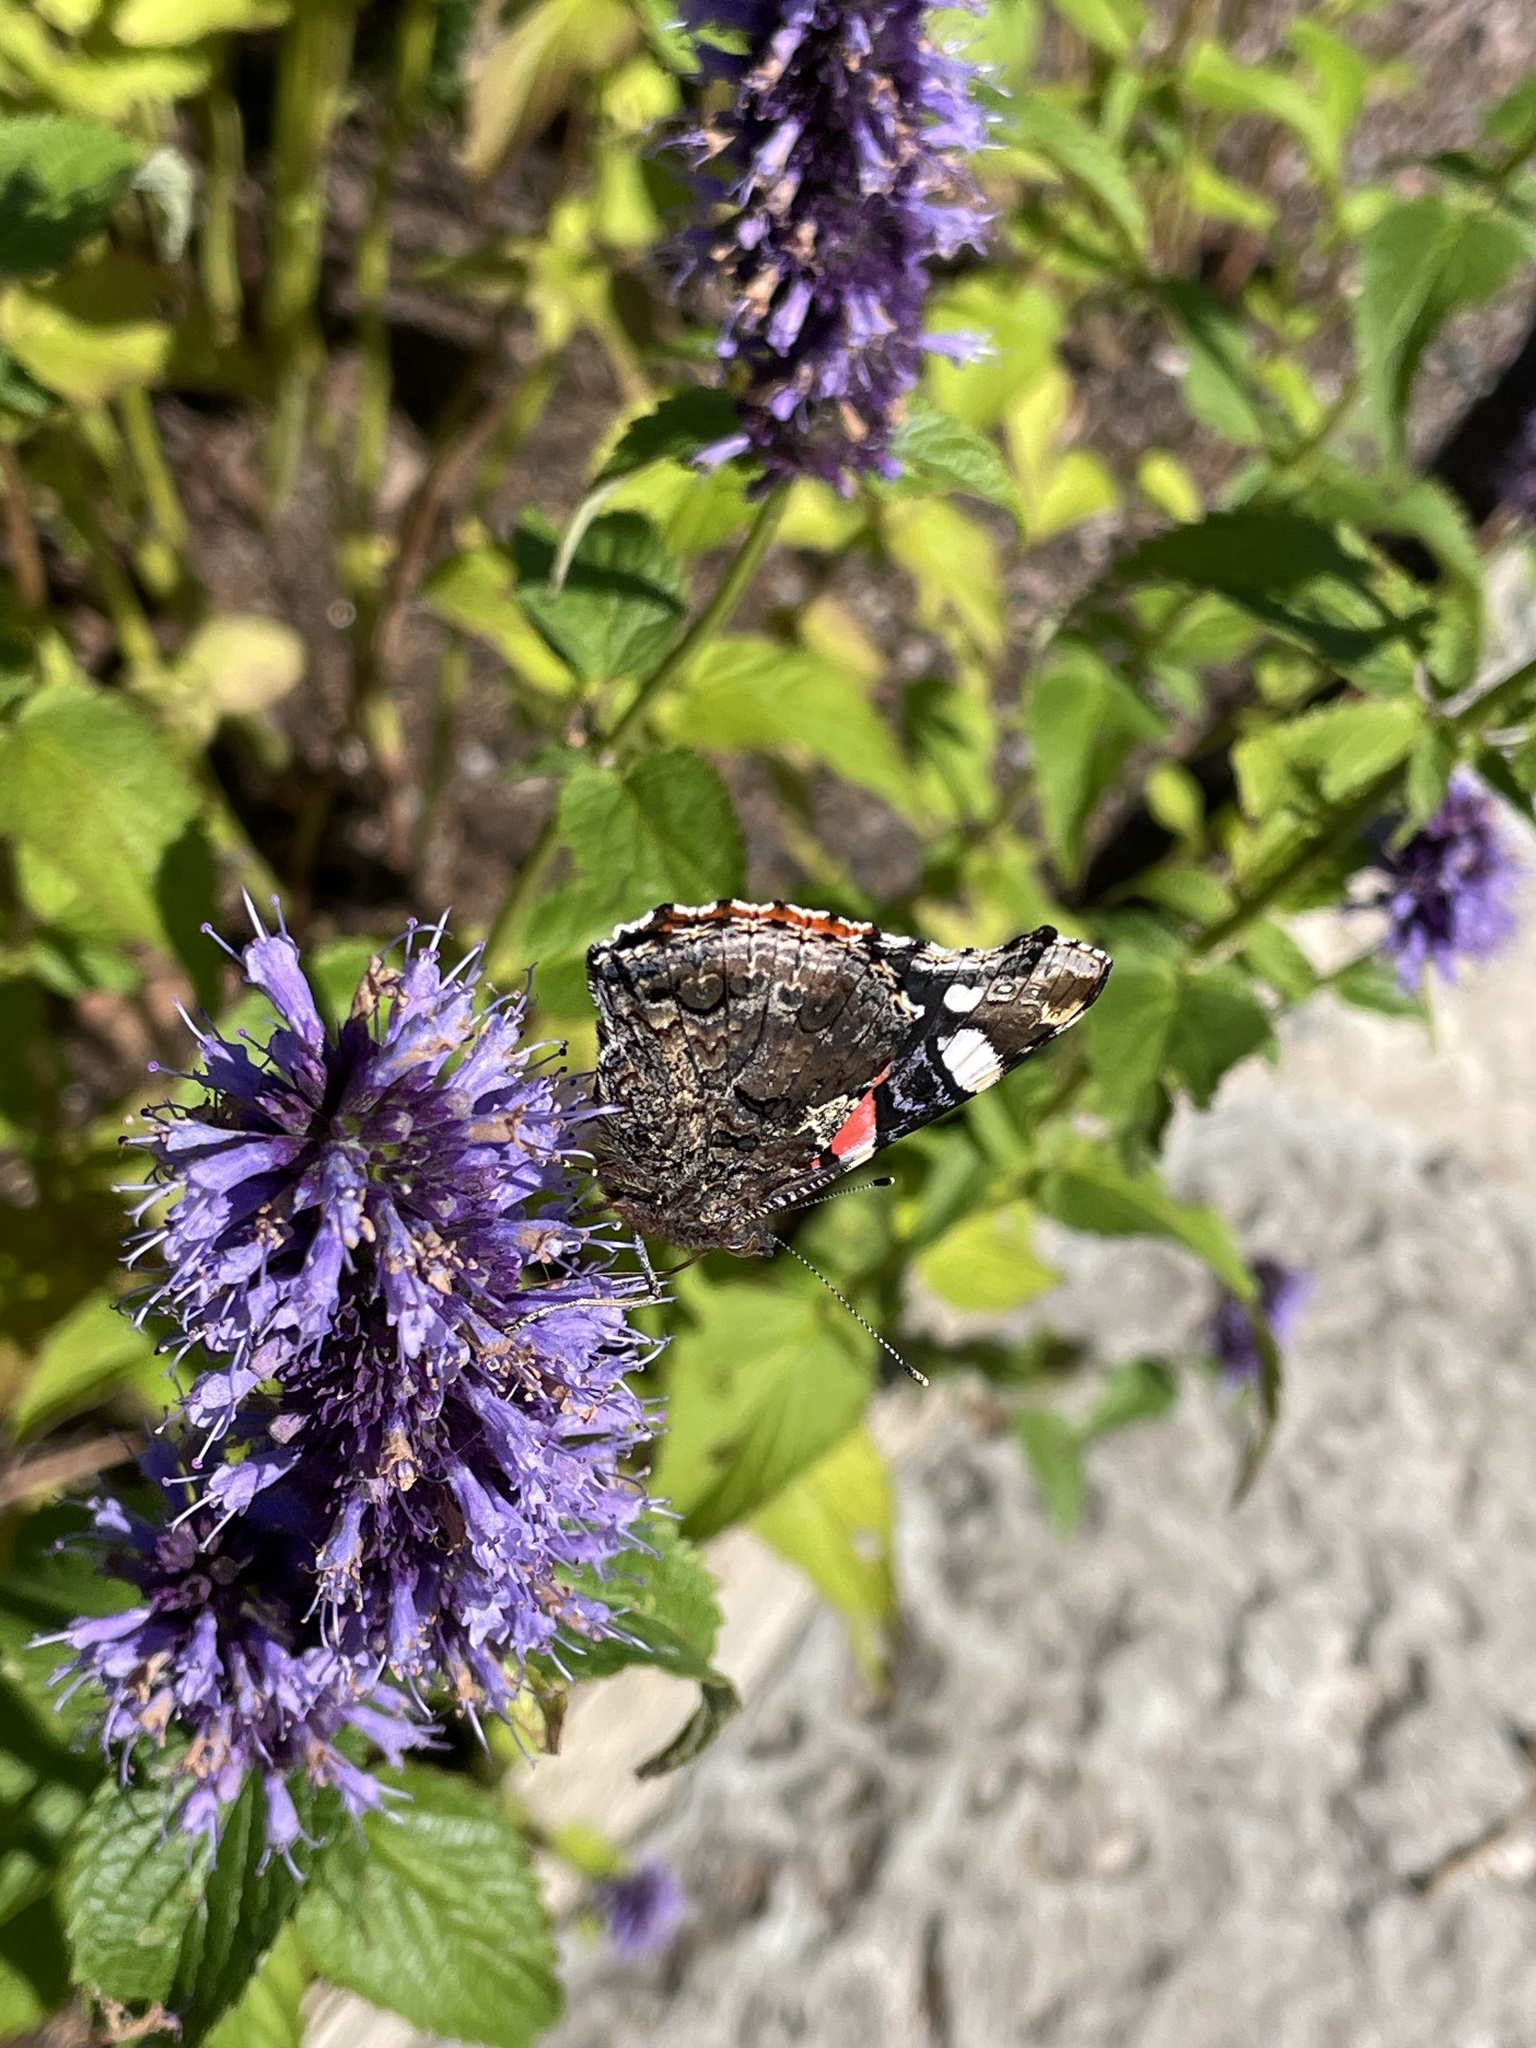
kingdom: Animalia
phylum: Arthropoda
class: Insecta
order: Lepidoptera
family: Nymphalidae
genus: Vanessa
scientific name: Vanessa atalanta
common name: Red admiral
